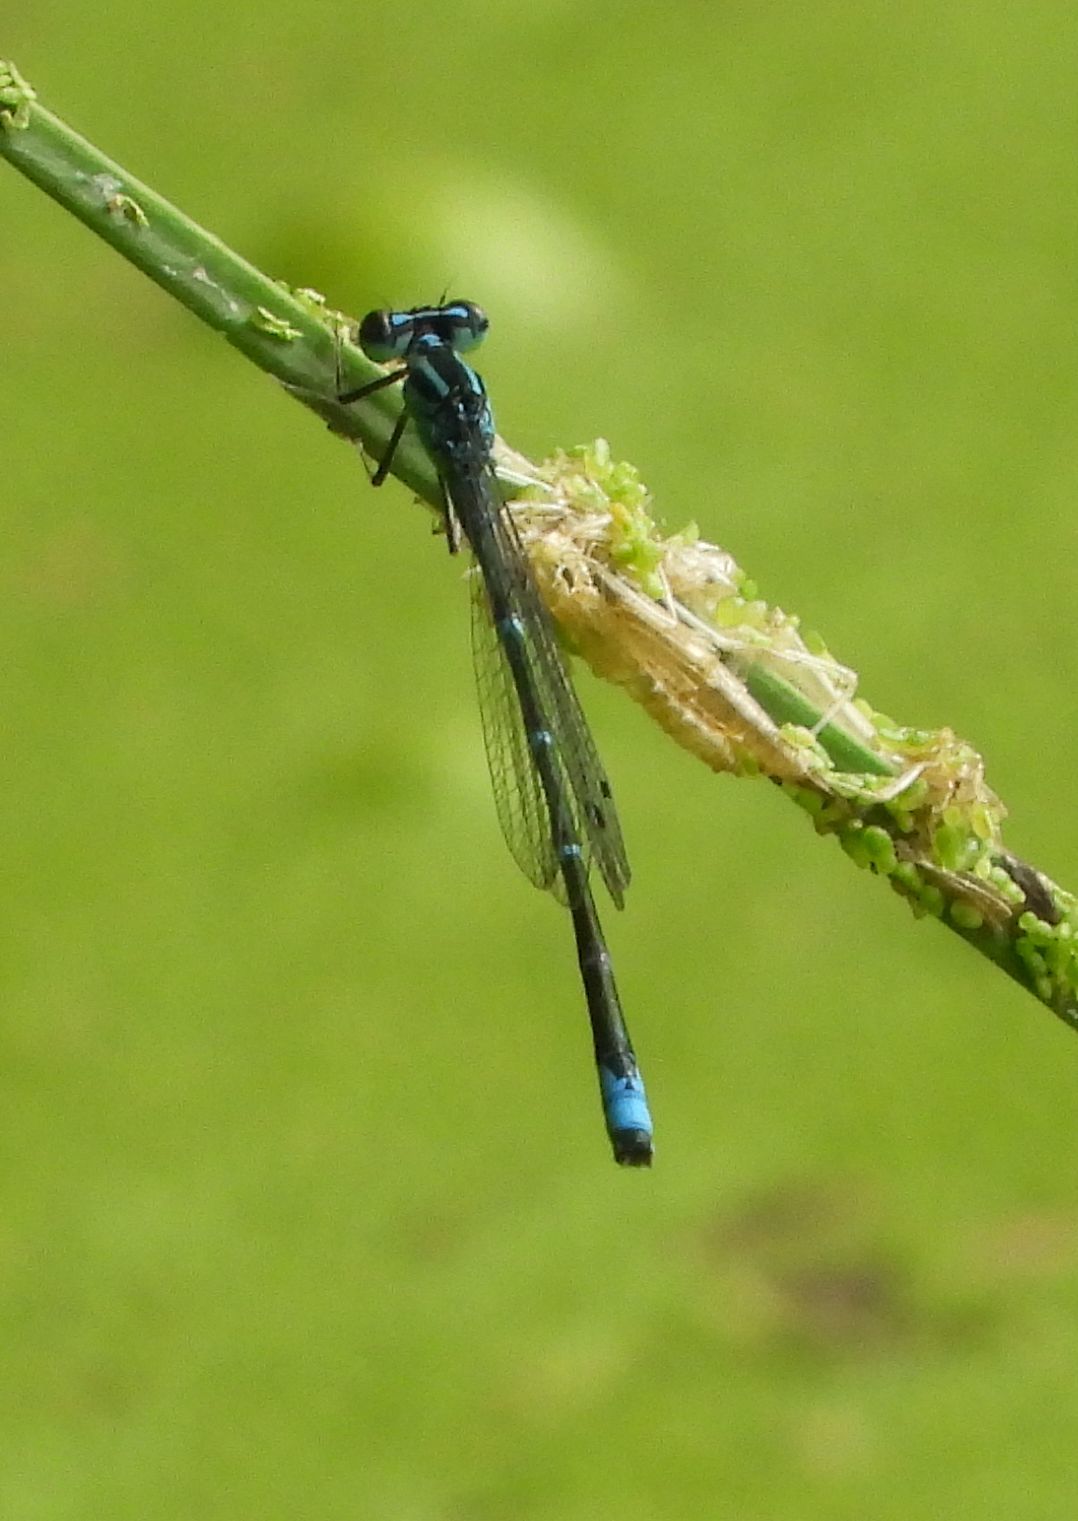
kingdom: Animalia
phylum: Arthropoda
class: Insecta
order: Odonata
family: Coenagrionidae
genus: Enallagma
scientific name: Enallagma exsulans
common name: Stream bluet
